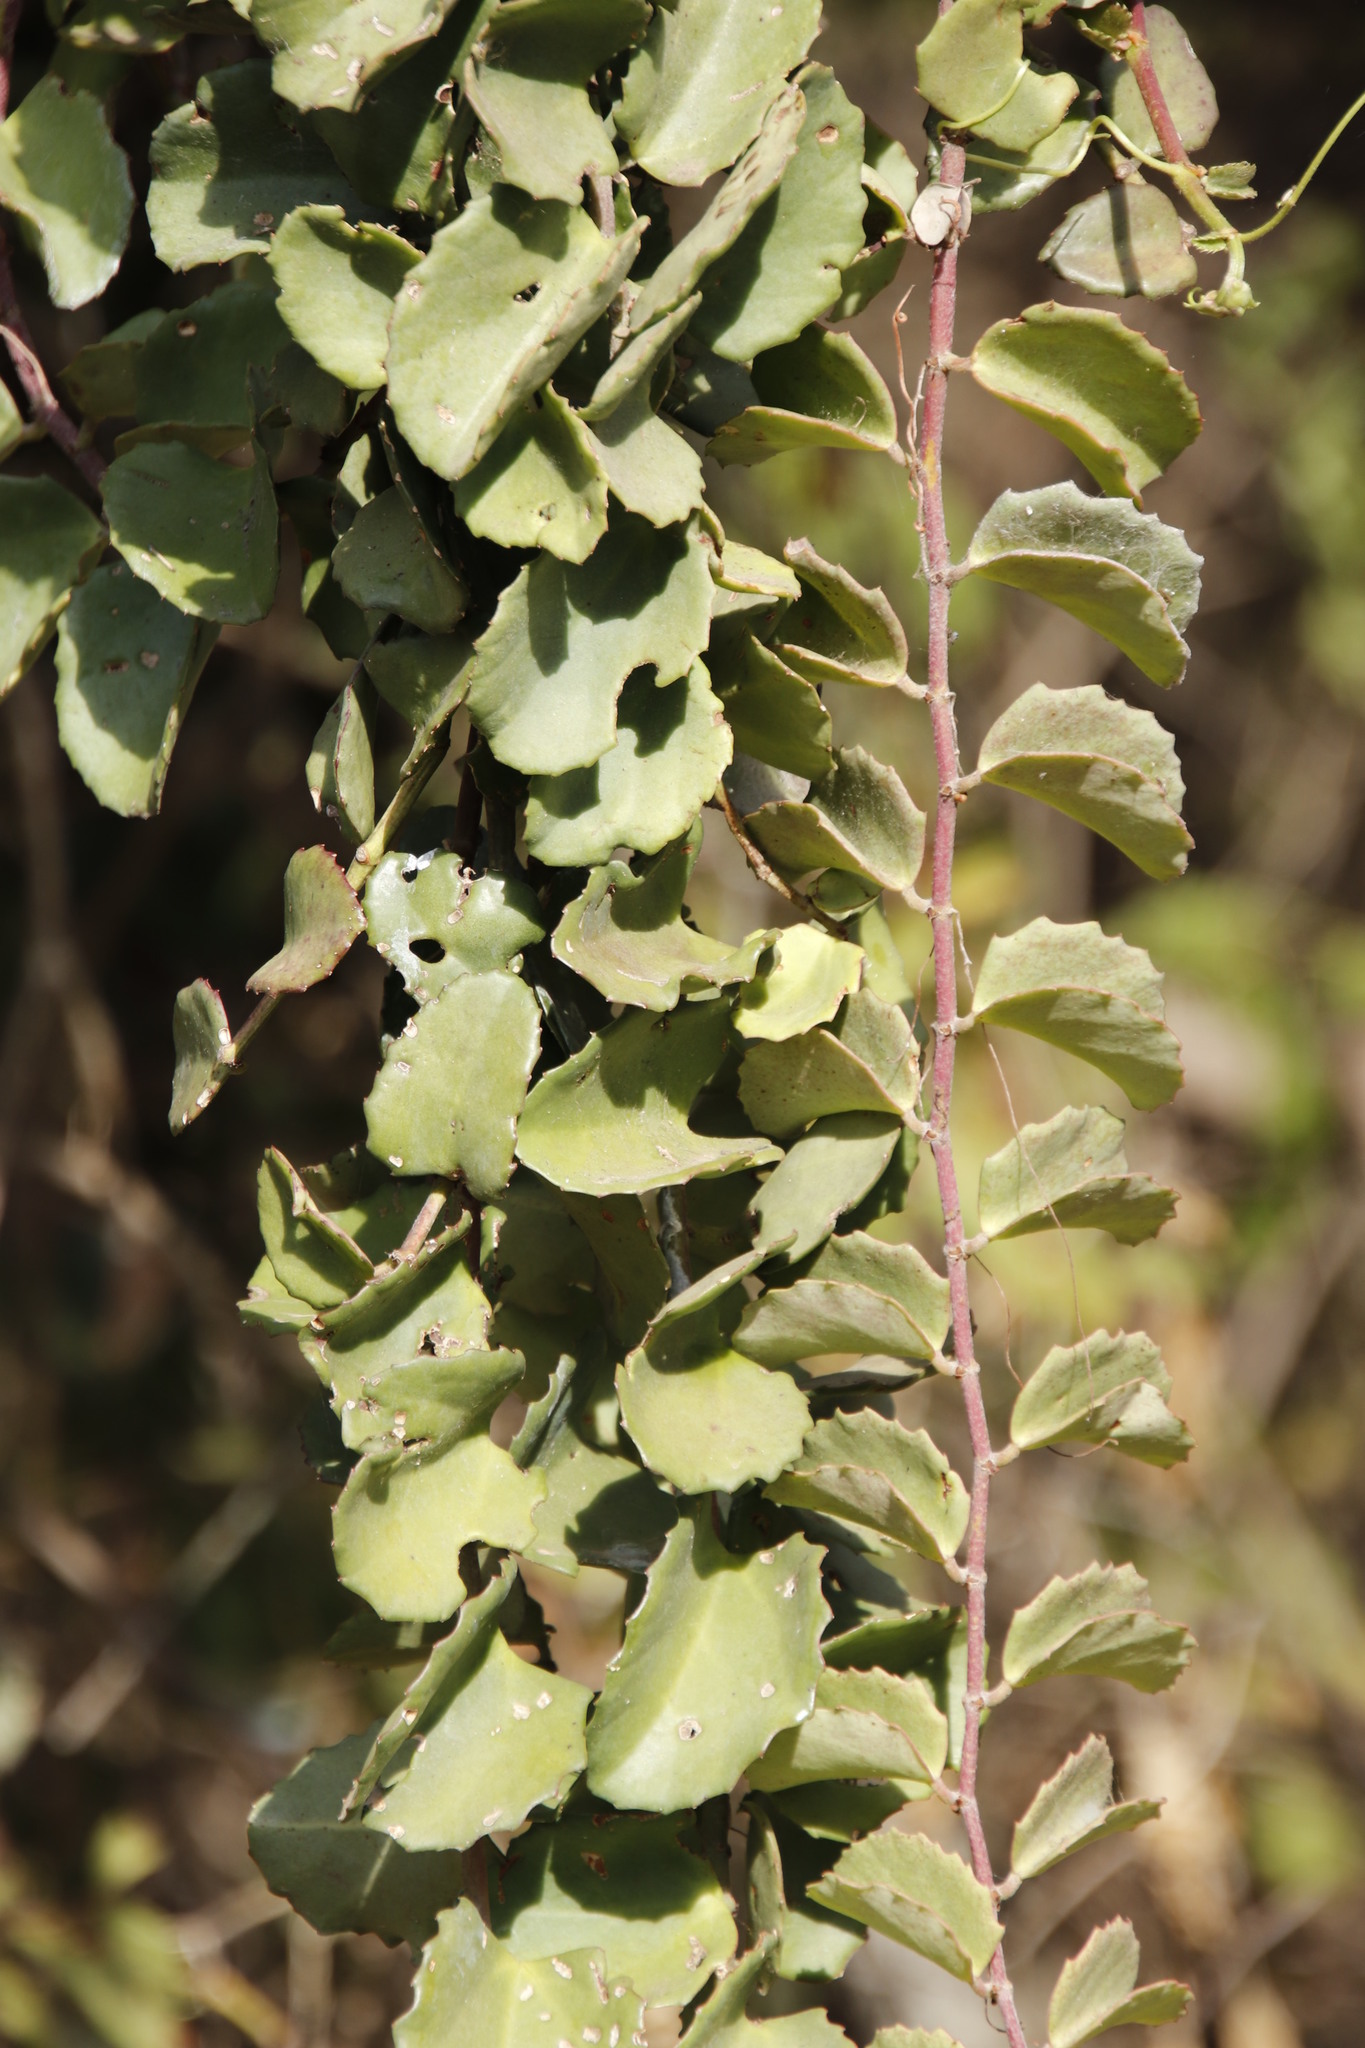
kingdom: Plantae
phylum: Tracheophyta
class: Magnoliopsida
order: Vitales
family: Vitaceae
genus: Cissus
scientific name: Cissus rotundifolia
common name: Arabian wax cissus
